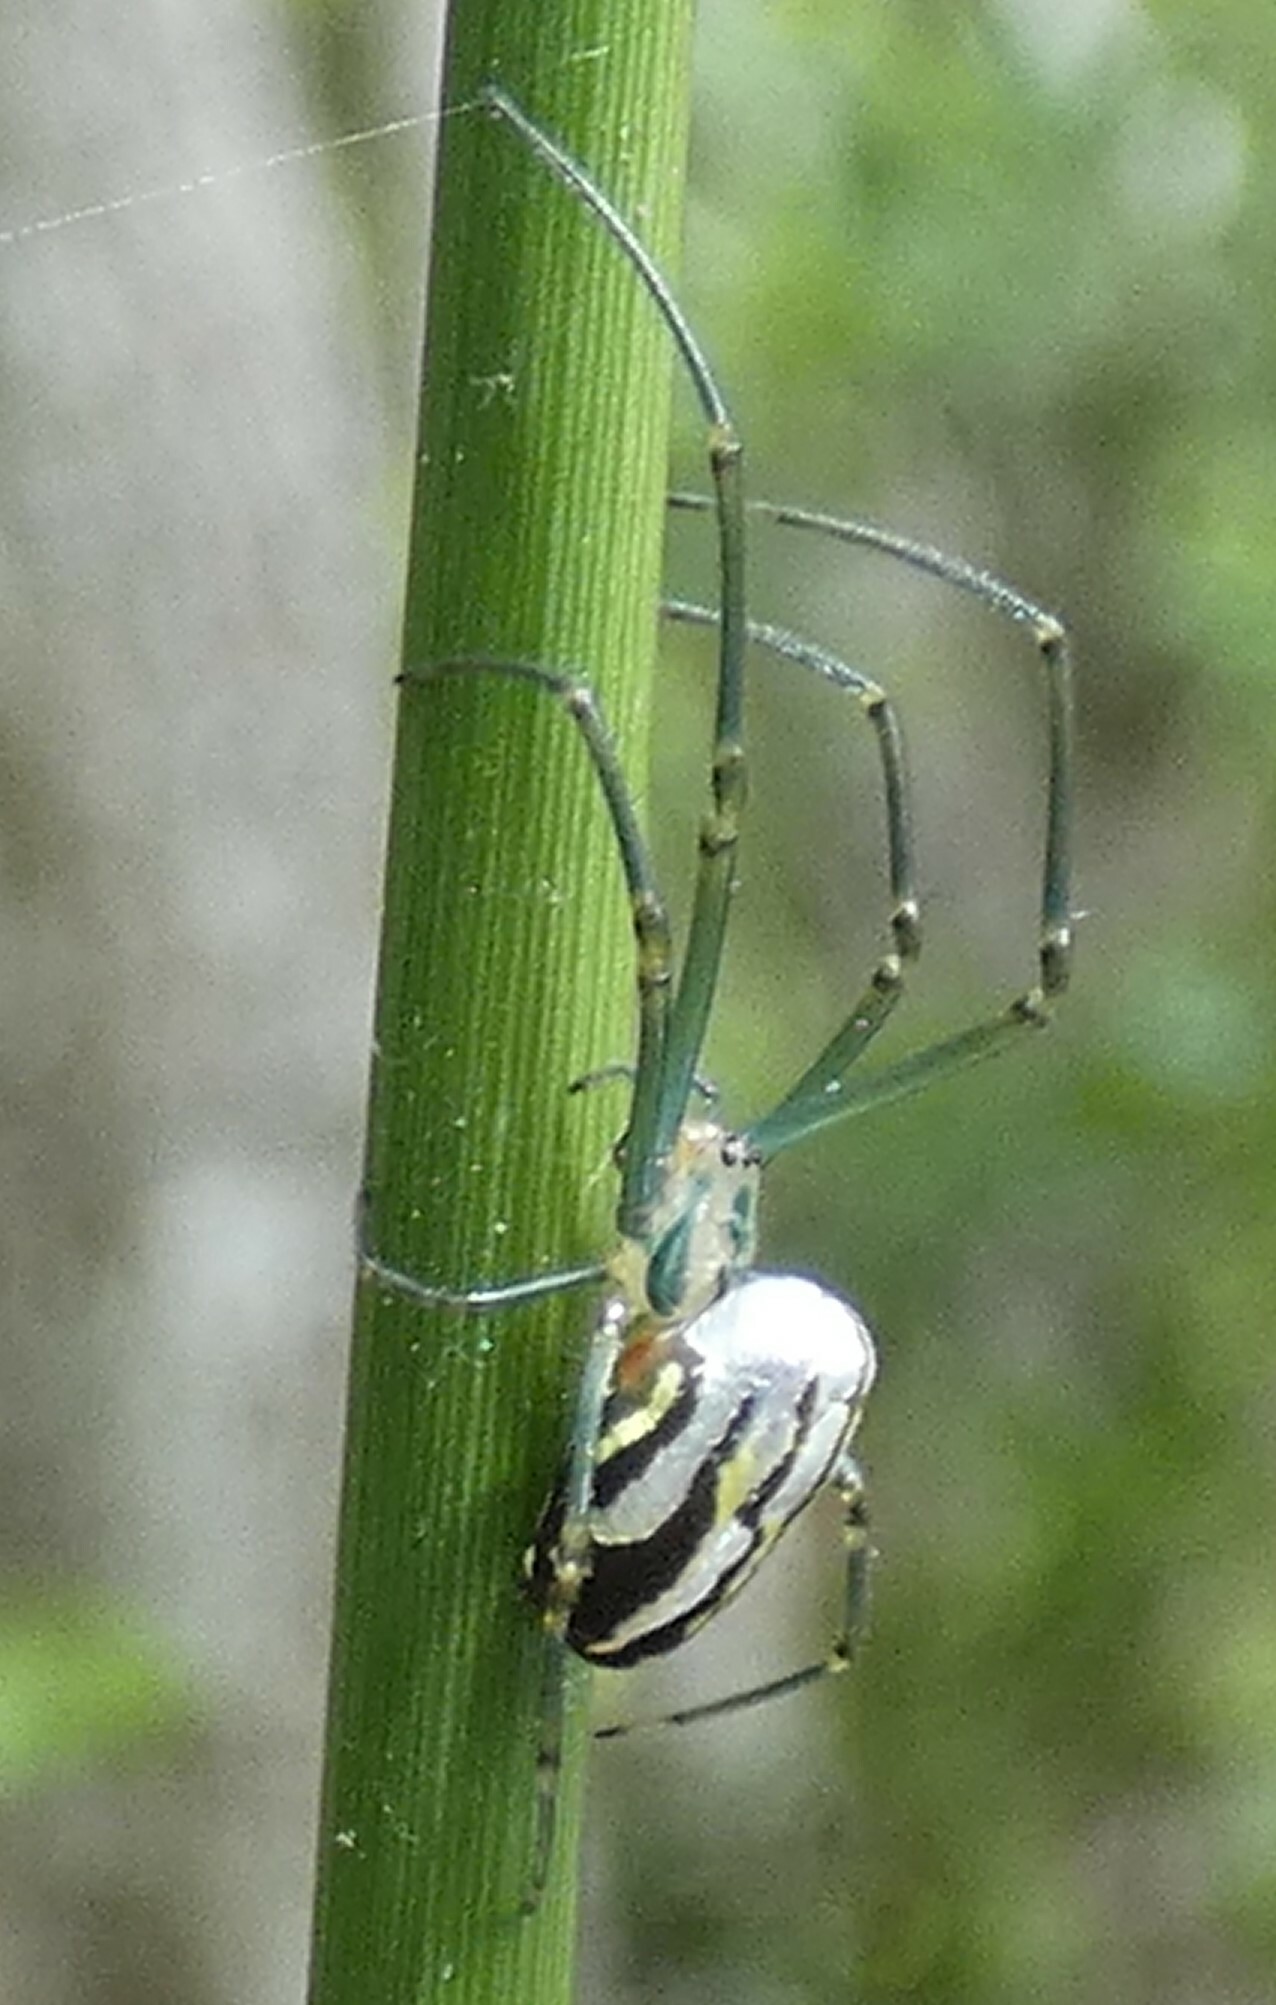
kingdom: Animalia
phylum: Arthropoda
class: Arachnida
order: Araneae
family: Tetragnathidae
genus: Leucauge
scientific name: Leucauge argyra
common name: Longjawed orb weavers
